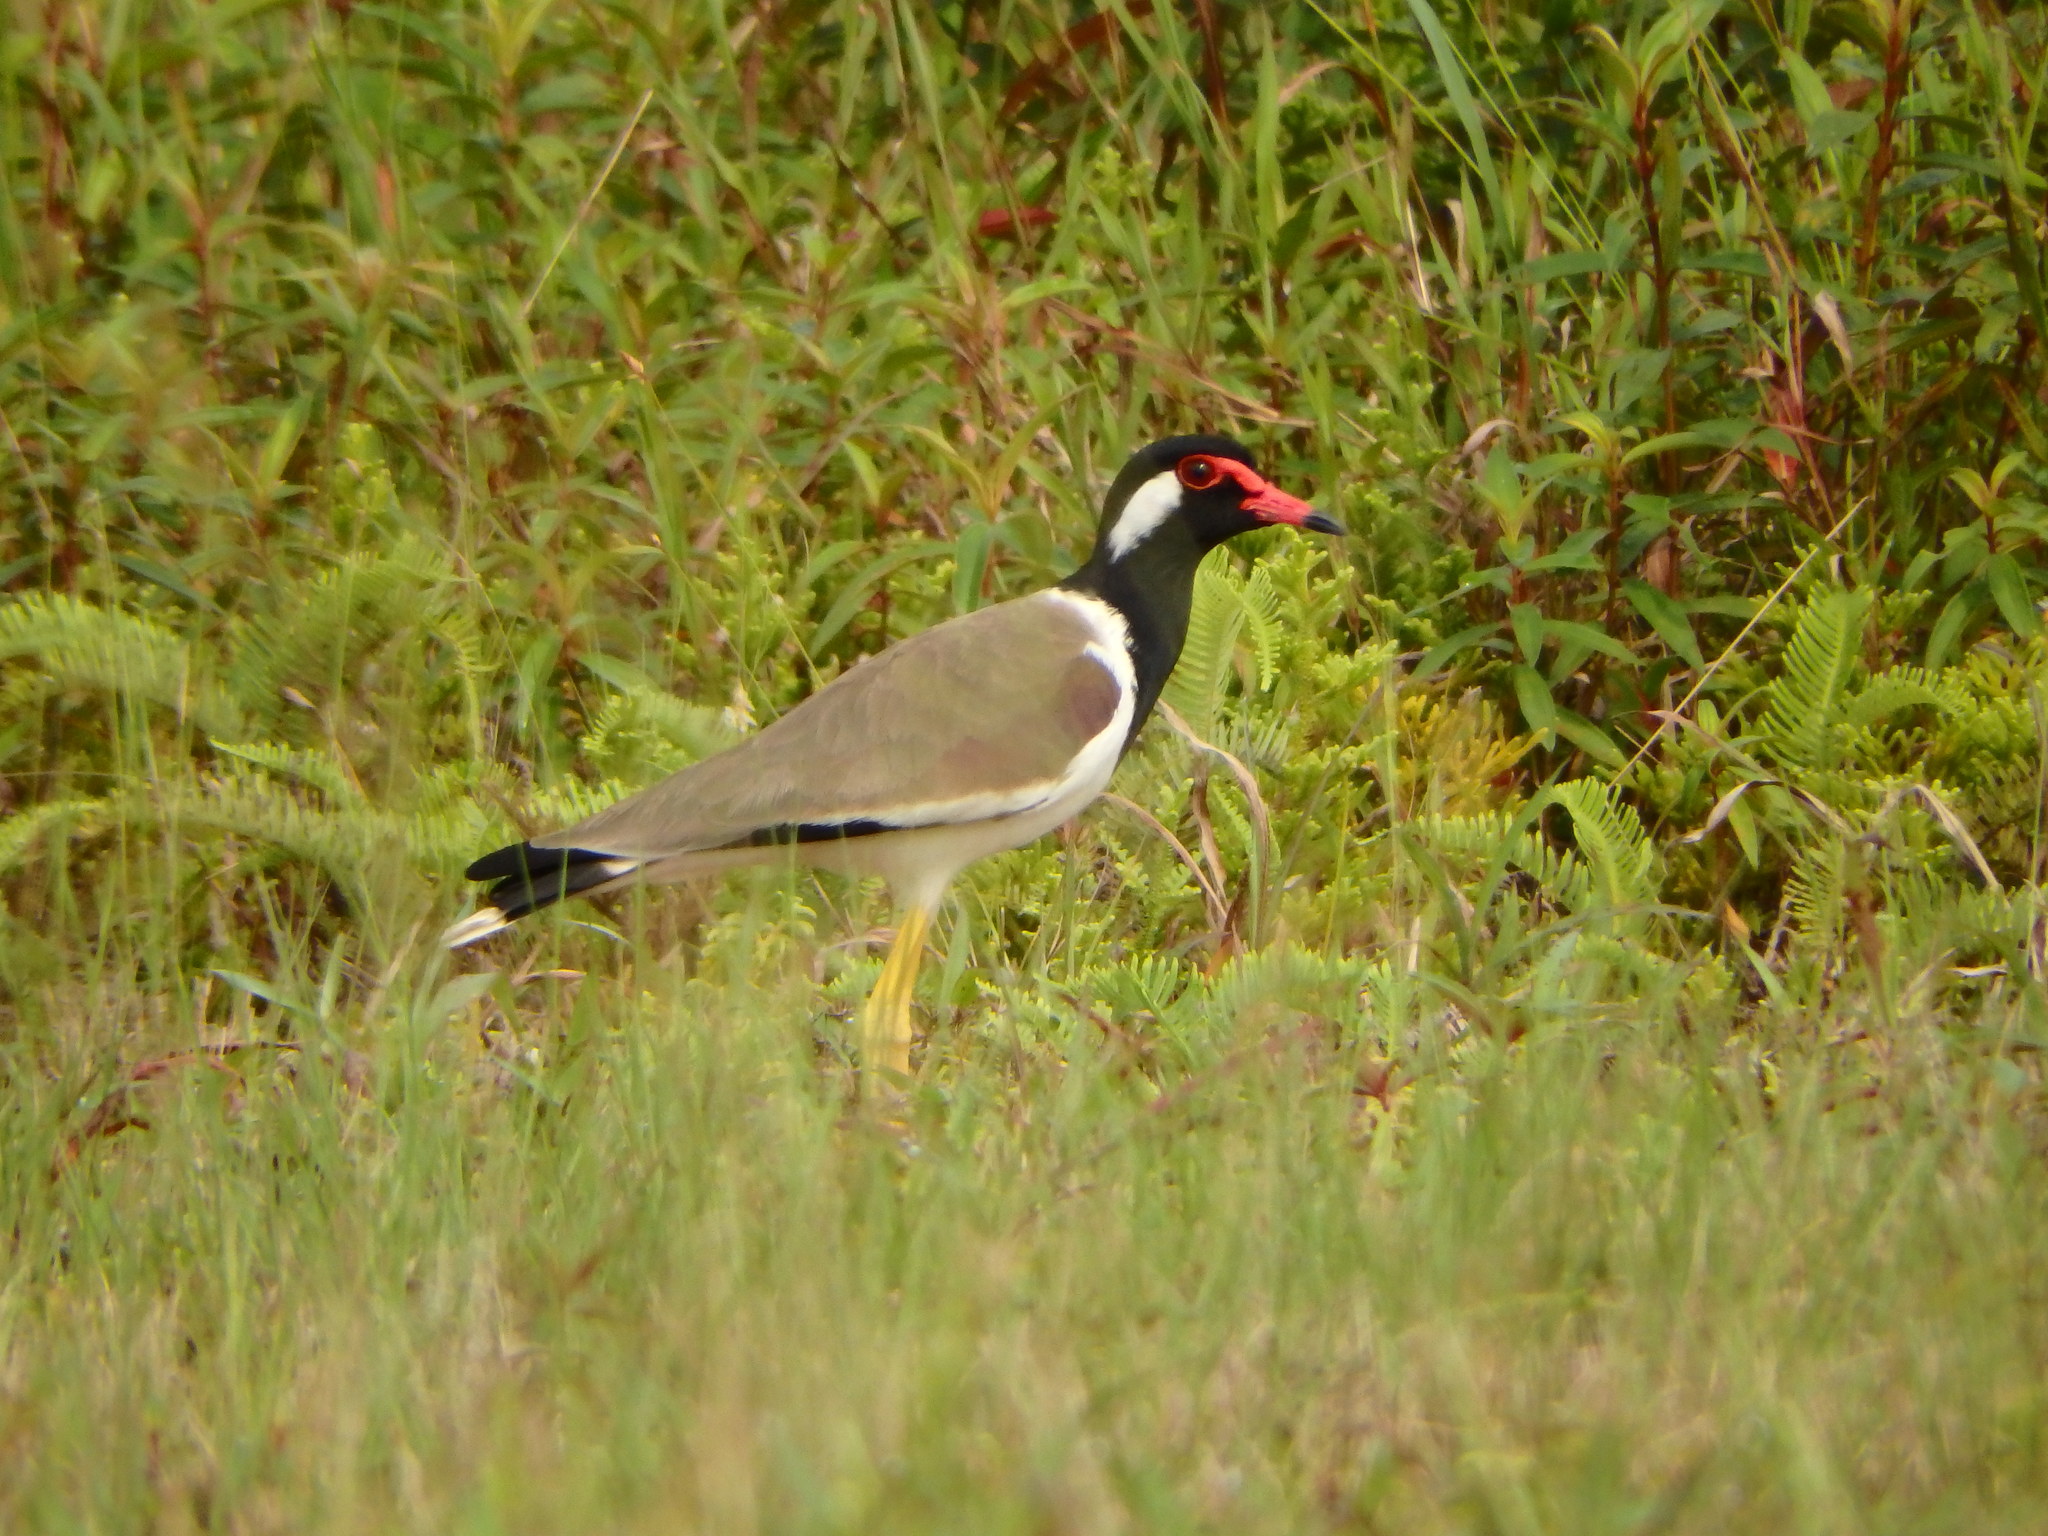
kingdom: Animalia
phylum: Chordata
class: Aves
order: Charadriiformes
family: Charadriidae
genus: Vanellus
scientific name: Vanellus indicus
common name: Red-wattled lapwing
